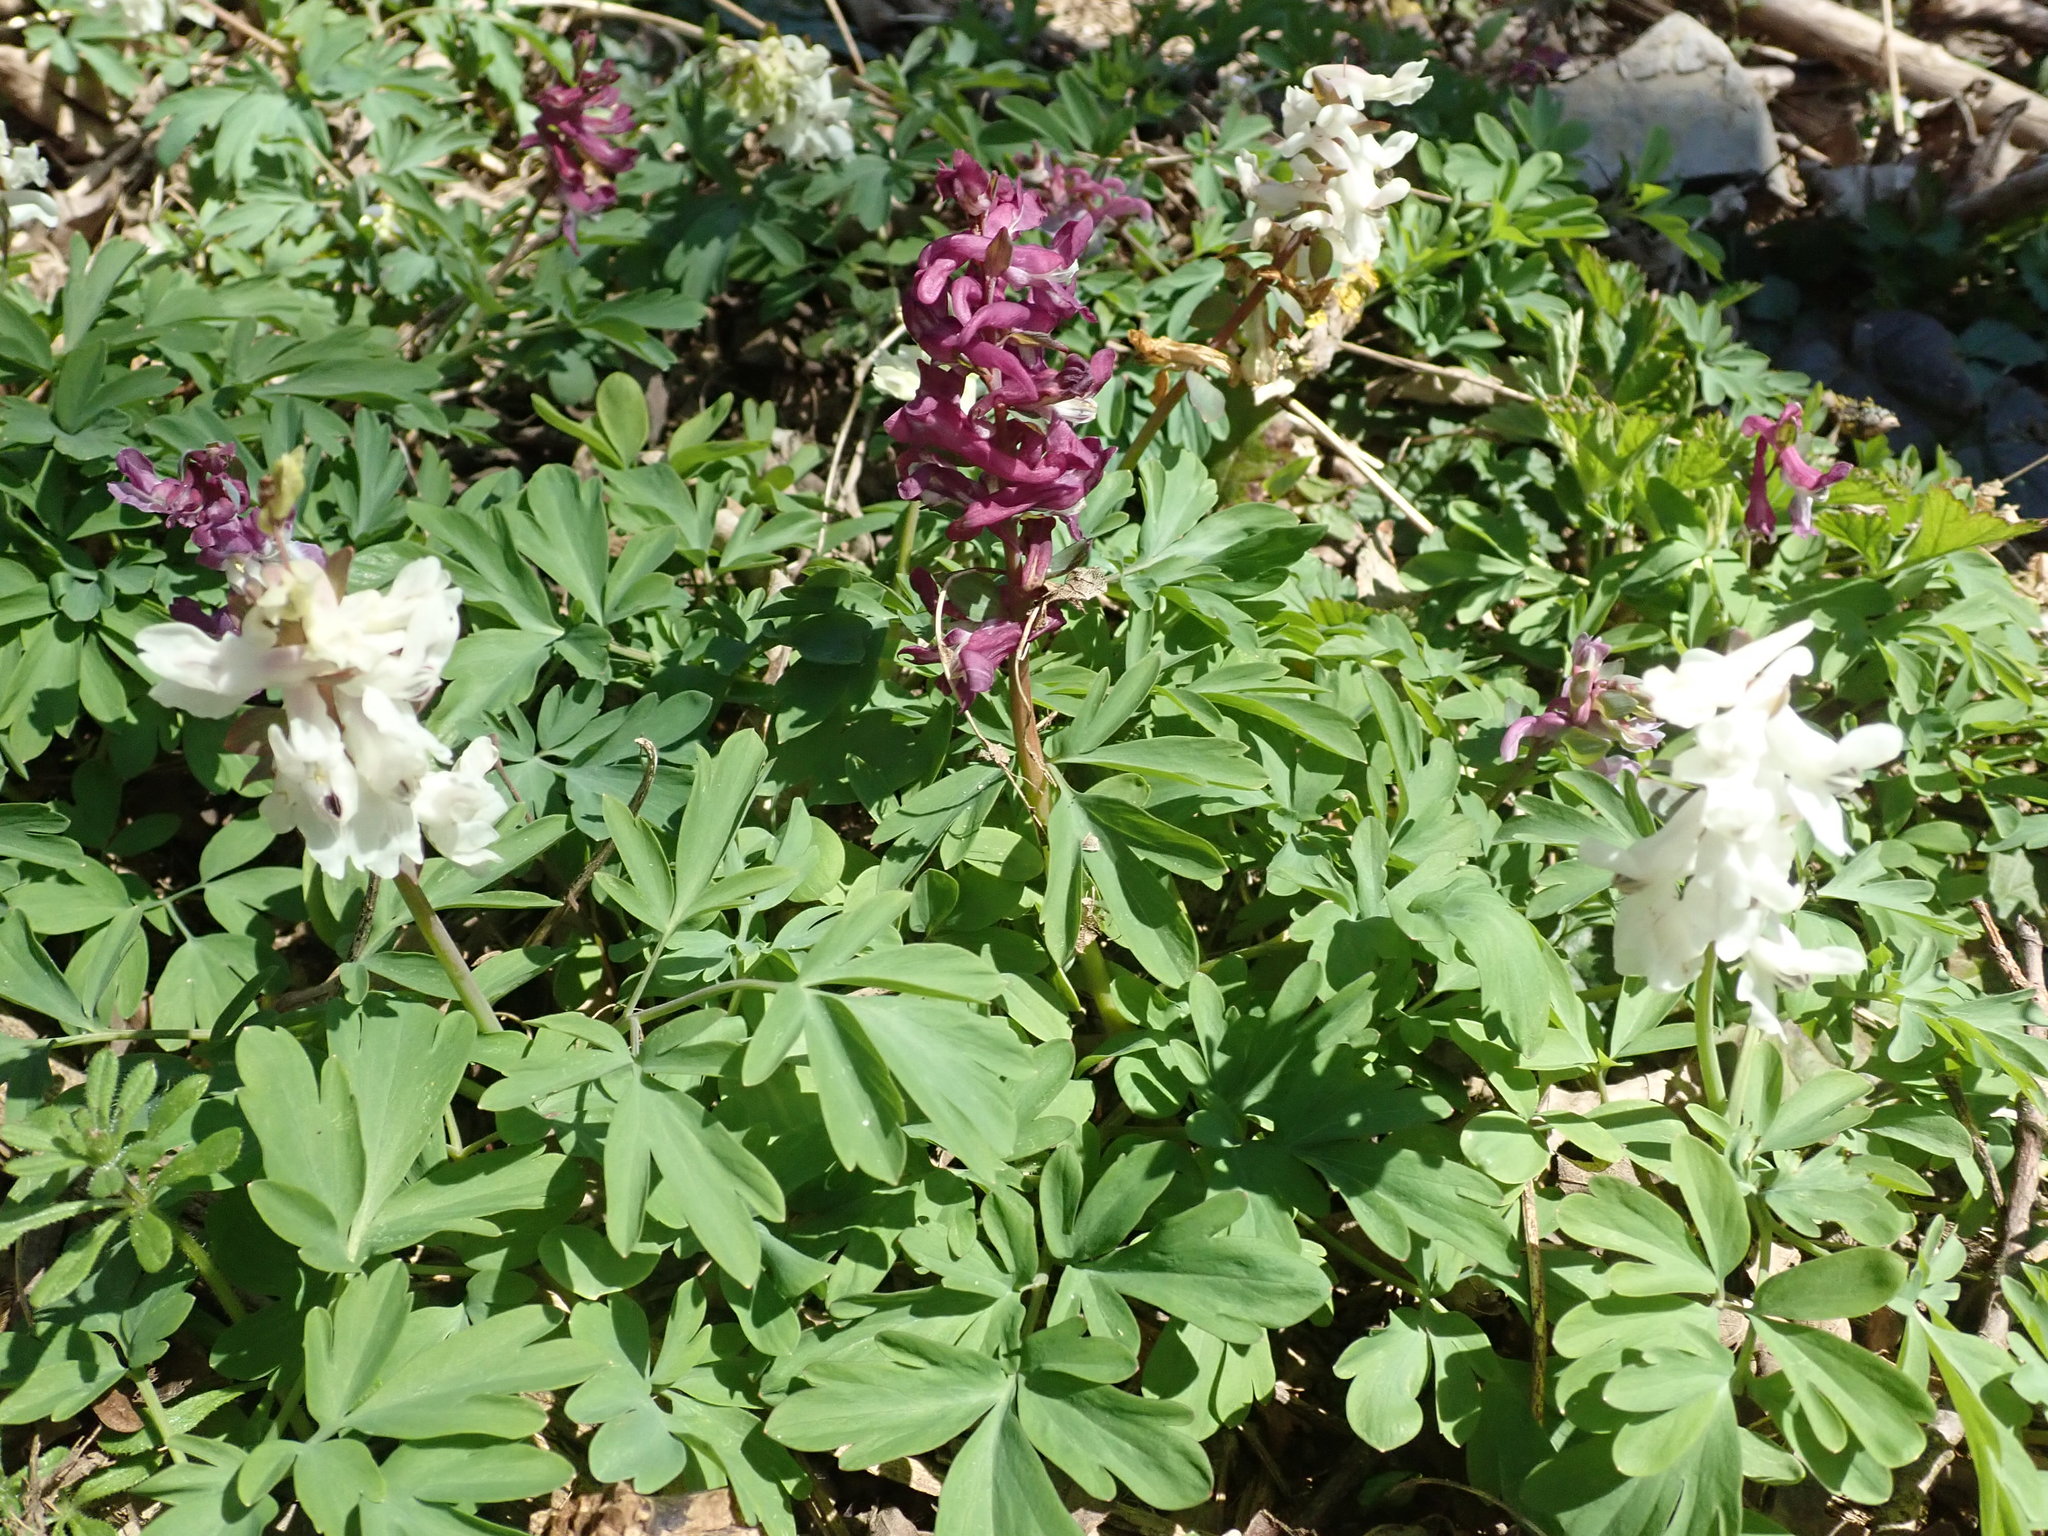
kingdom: Plantae
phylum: Tracheophyta
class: Magnoliopsida
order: Ranunculales
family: Papaveraceae
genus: Corydalis
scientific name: Corydalis cava
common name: Hollowroot
